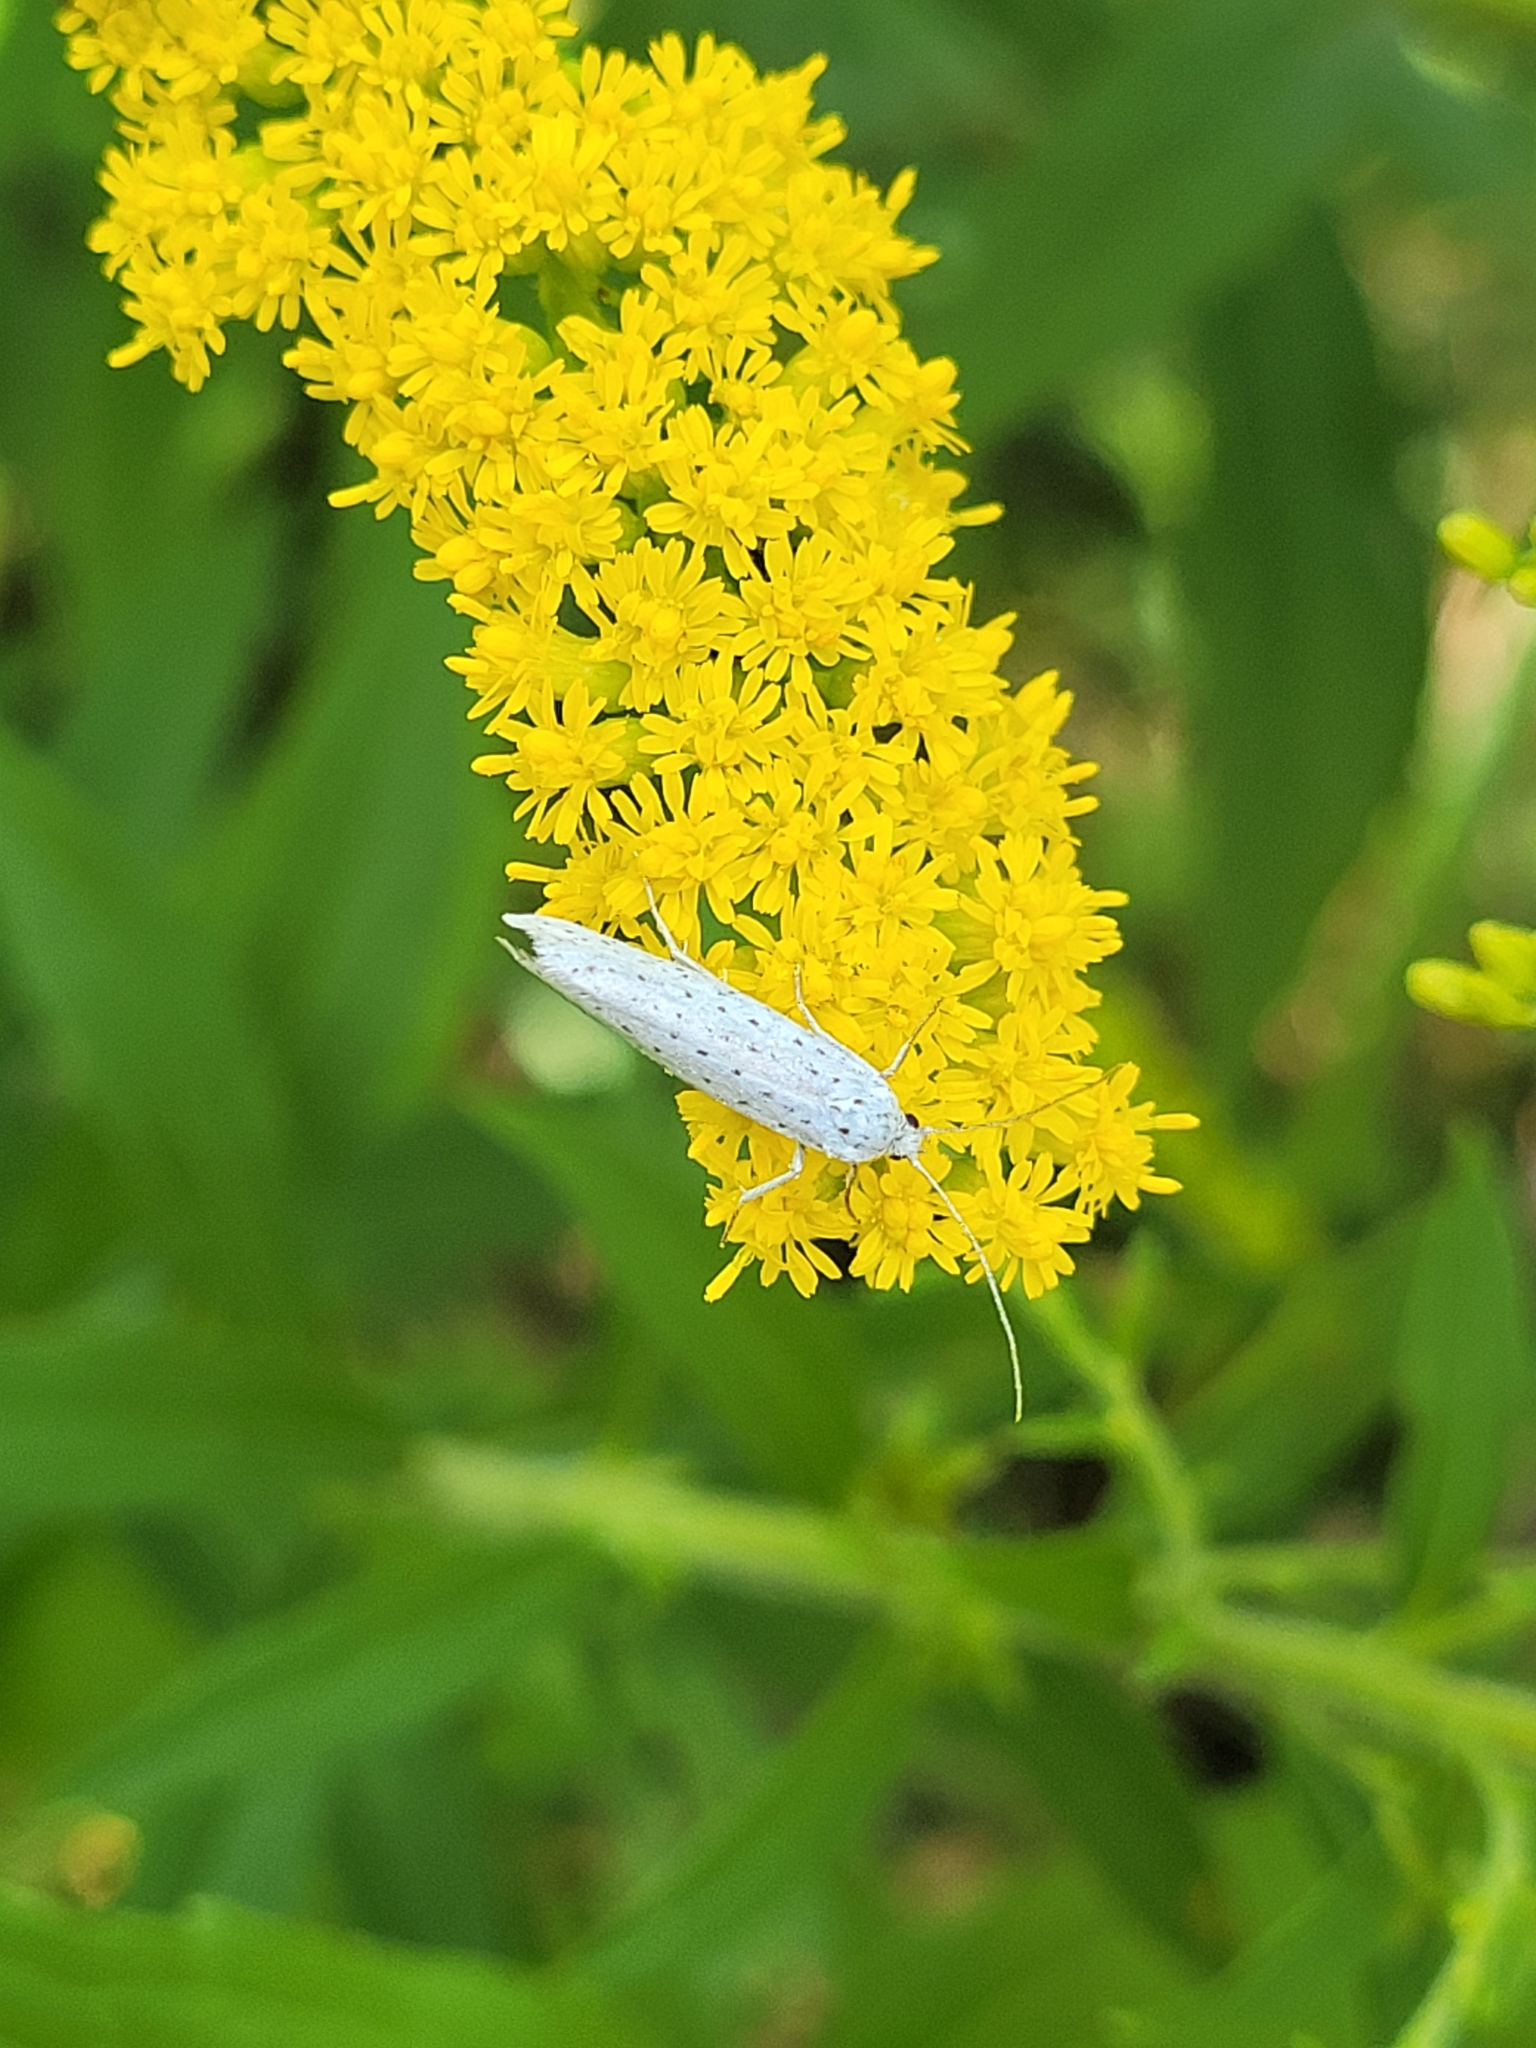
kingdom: Animalia
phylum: Arthropoda
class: Insecta
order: Lepidoptera
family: Yponomeutidae
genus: Yponomeuta
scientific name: Yponomeuta evonymella
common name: Bird-cherry ermine
